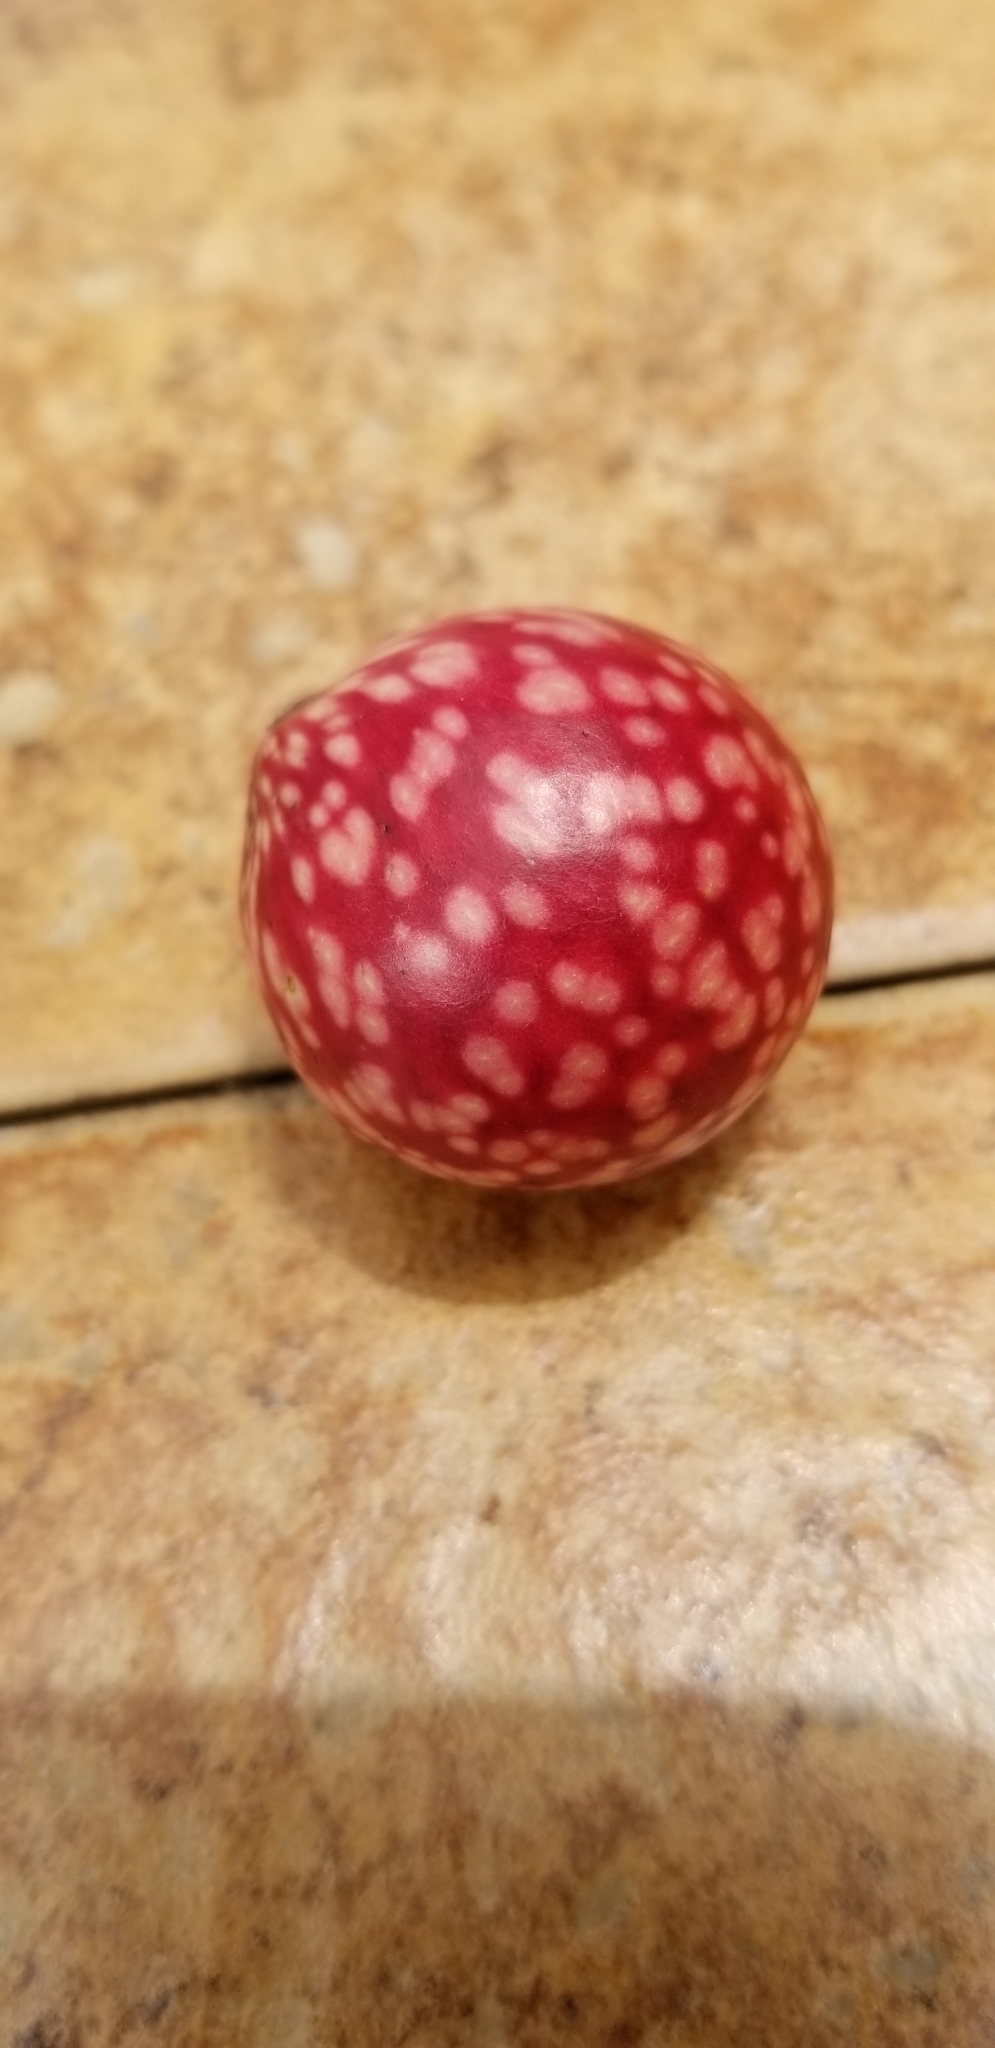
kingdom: Animalia
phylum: Arthropoda
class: Insecta
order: Hymenoptera
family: Cynipidae
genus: Amphibolips
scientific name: Amphibolips
